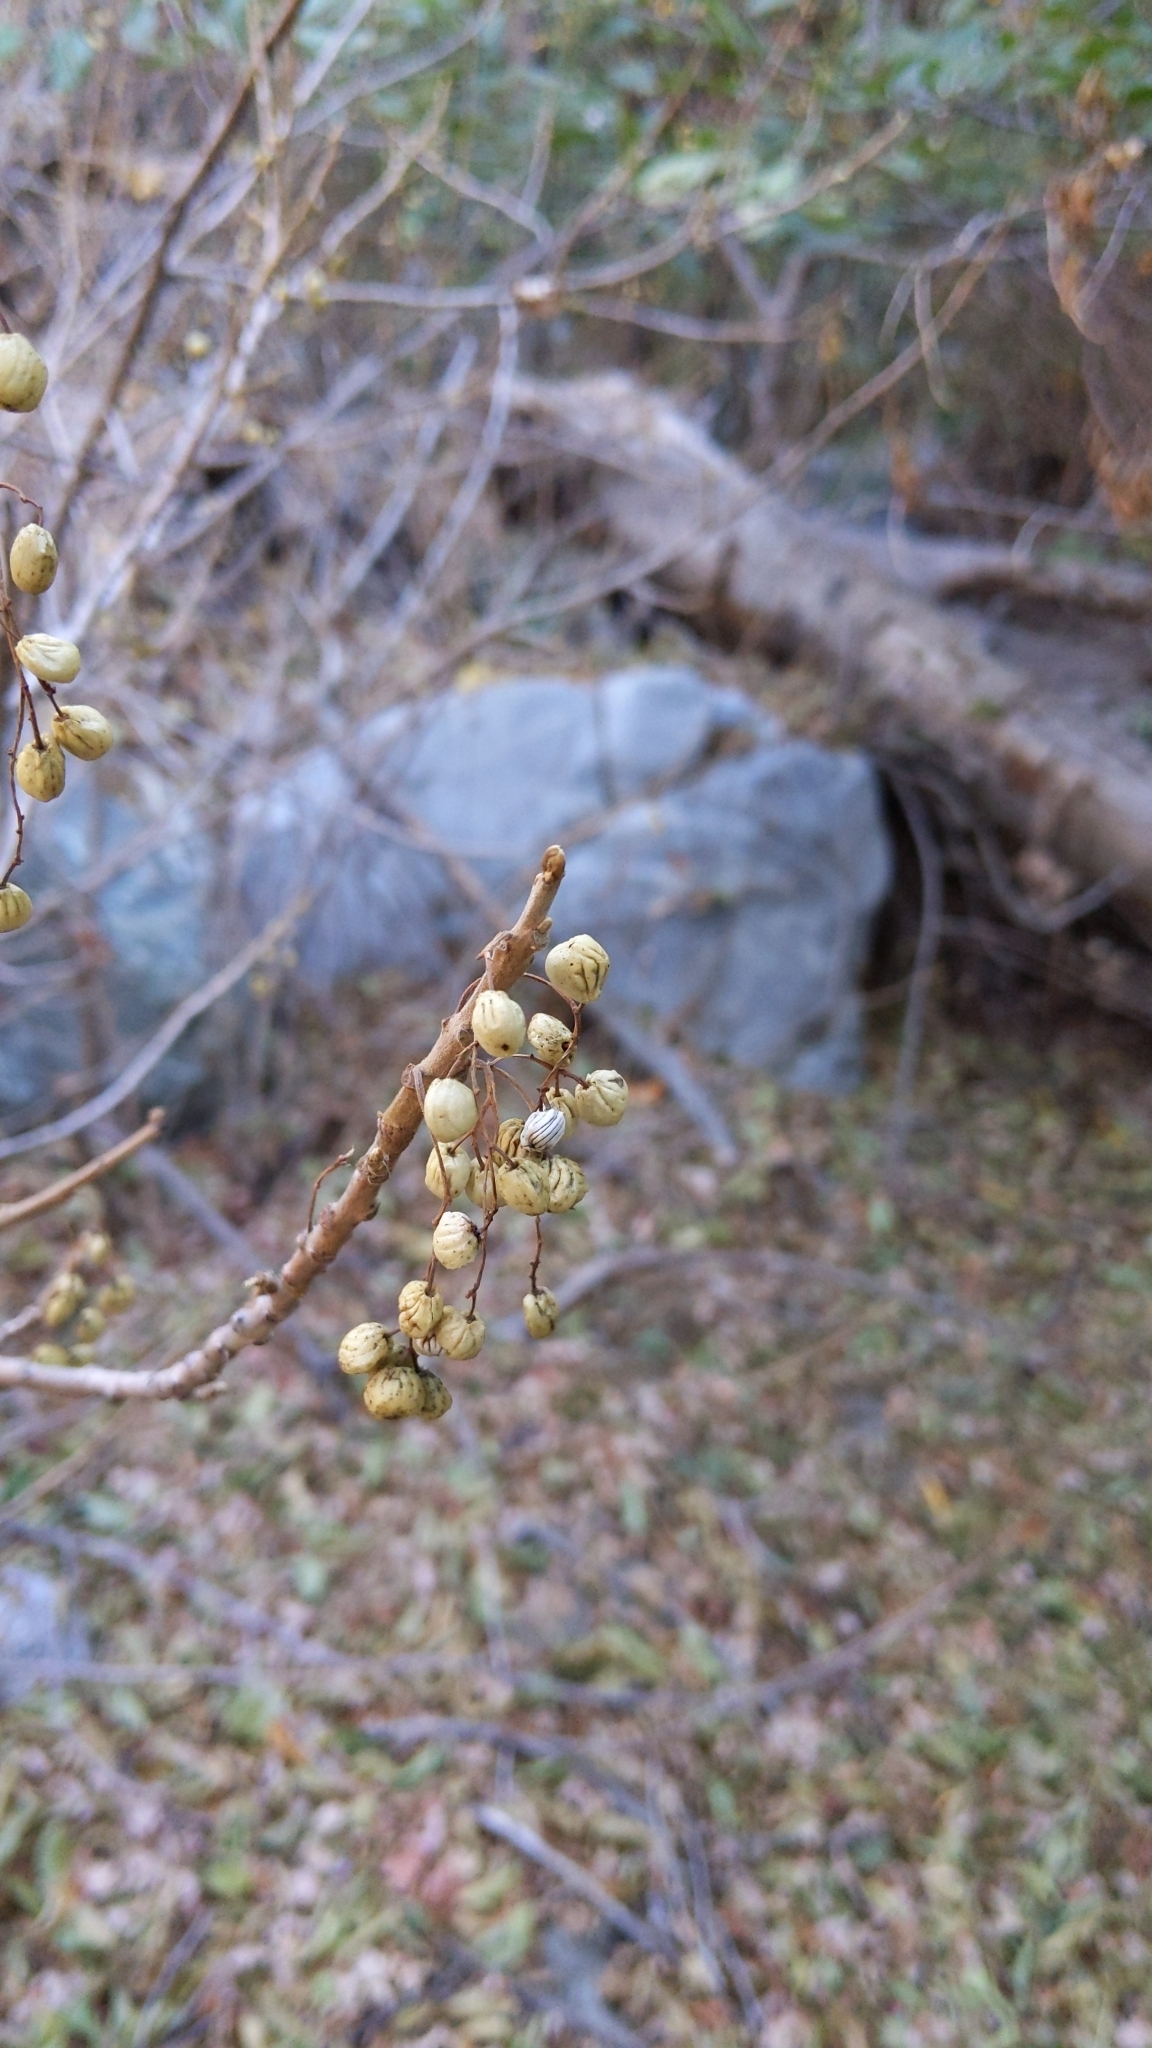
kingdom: Plantae
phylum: Tracheophyta
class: Magnoliopsida
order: Sapindales
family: Anacardiaceae
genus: Toxicodendron
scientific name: Toxicodendron diversilobum
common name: Pacific poison-oak
